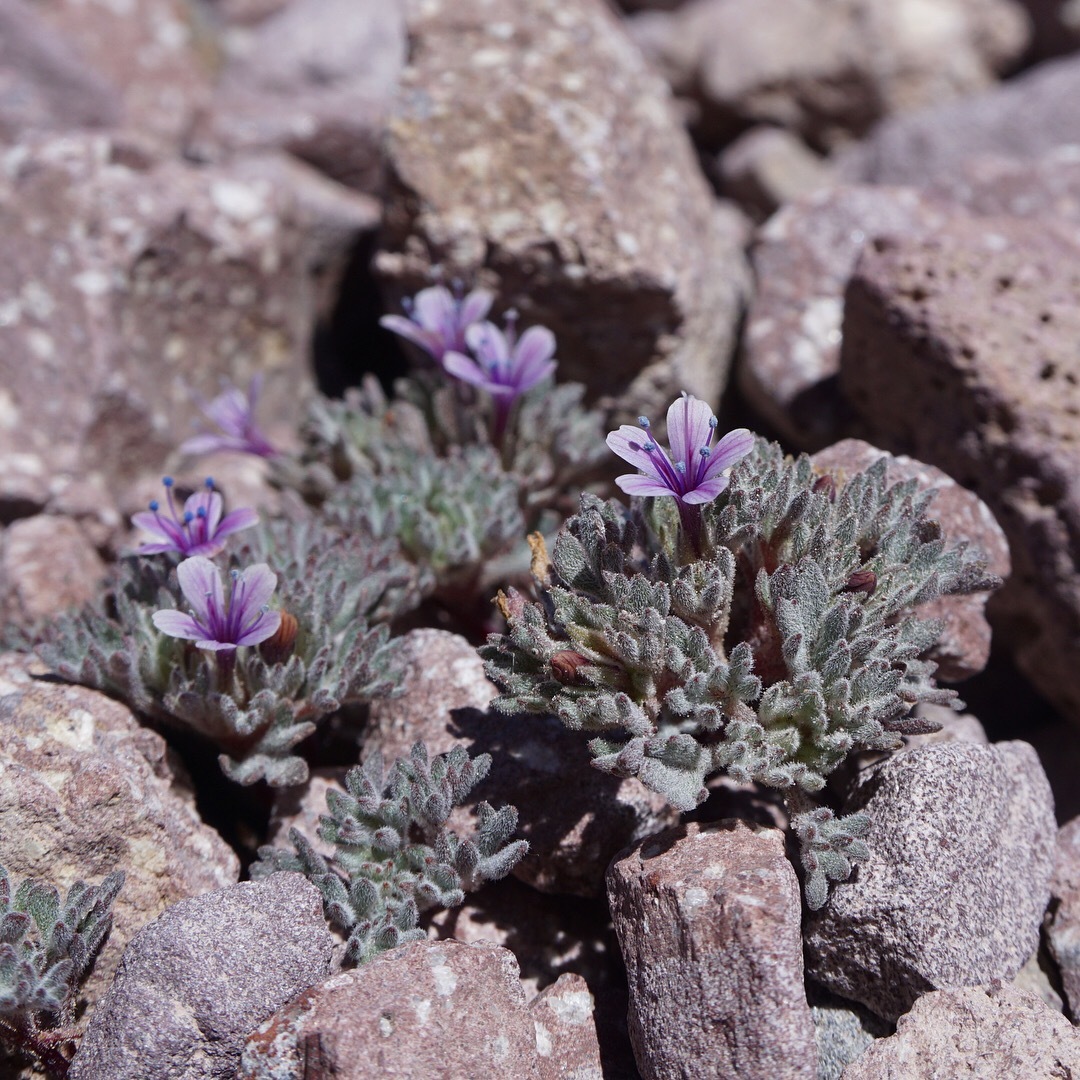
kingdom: Plantae
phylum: Tracheophyta
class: Magnoliopsida
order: Ericales
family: Polemoniaceae
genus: Collomia
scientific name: Collomia larsenii
